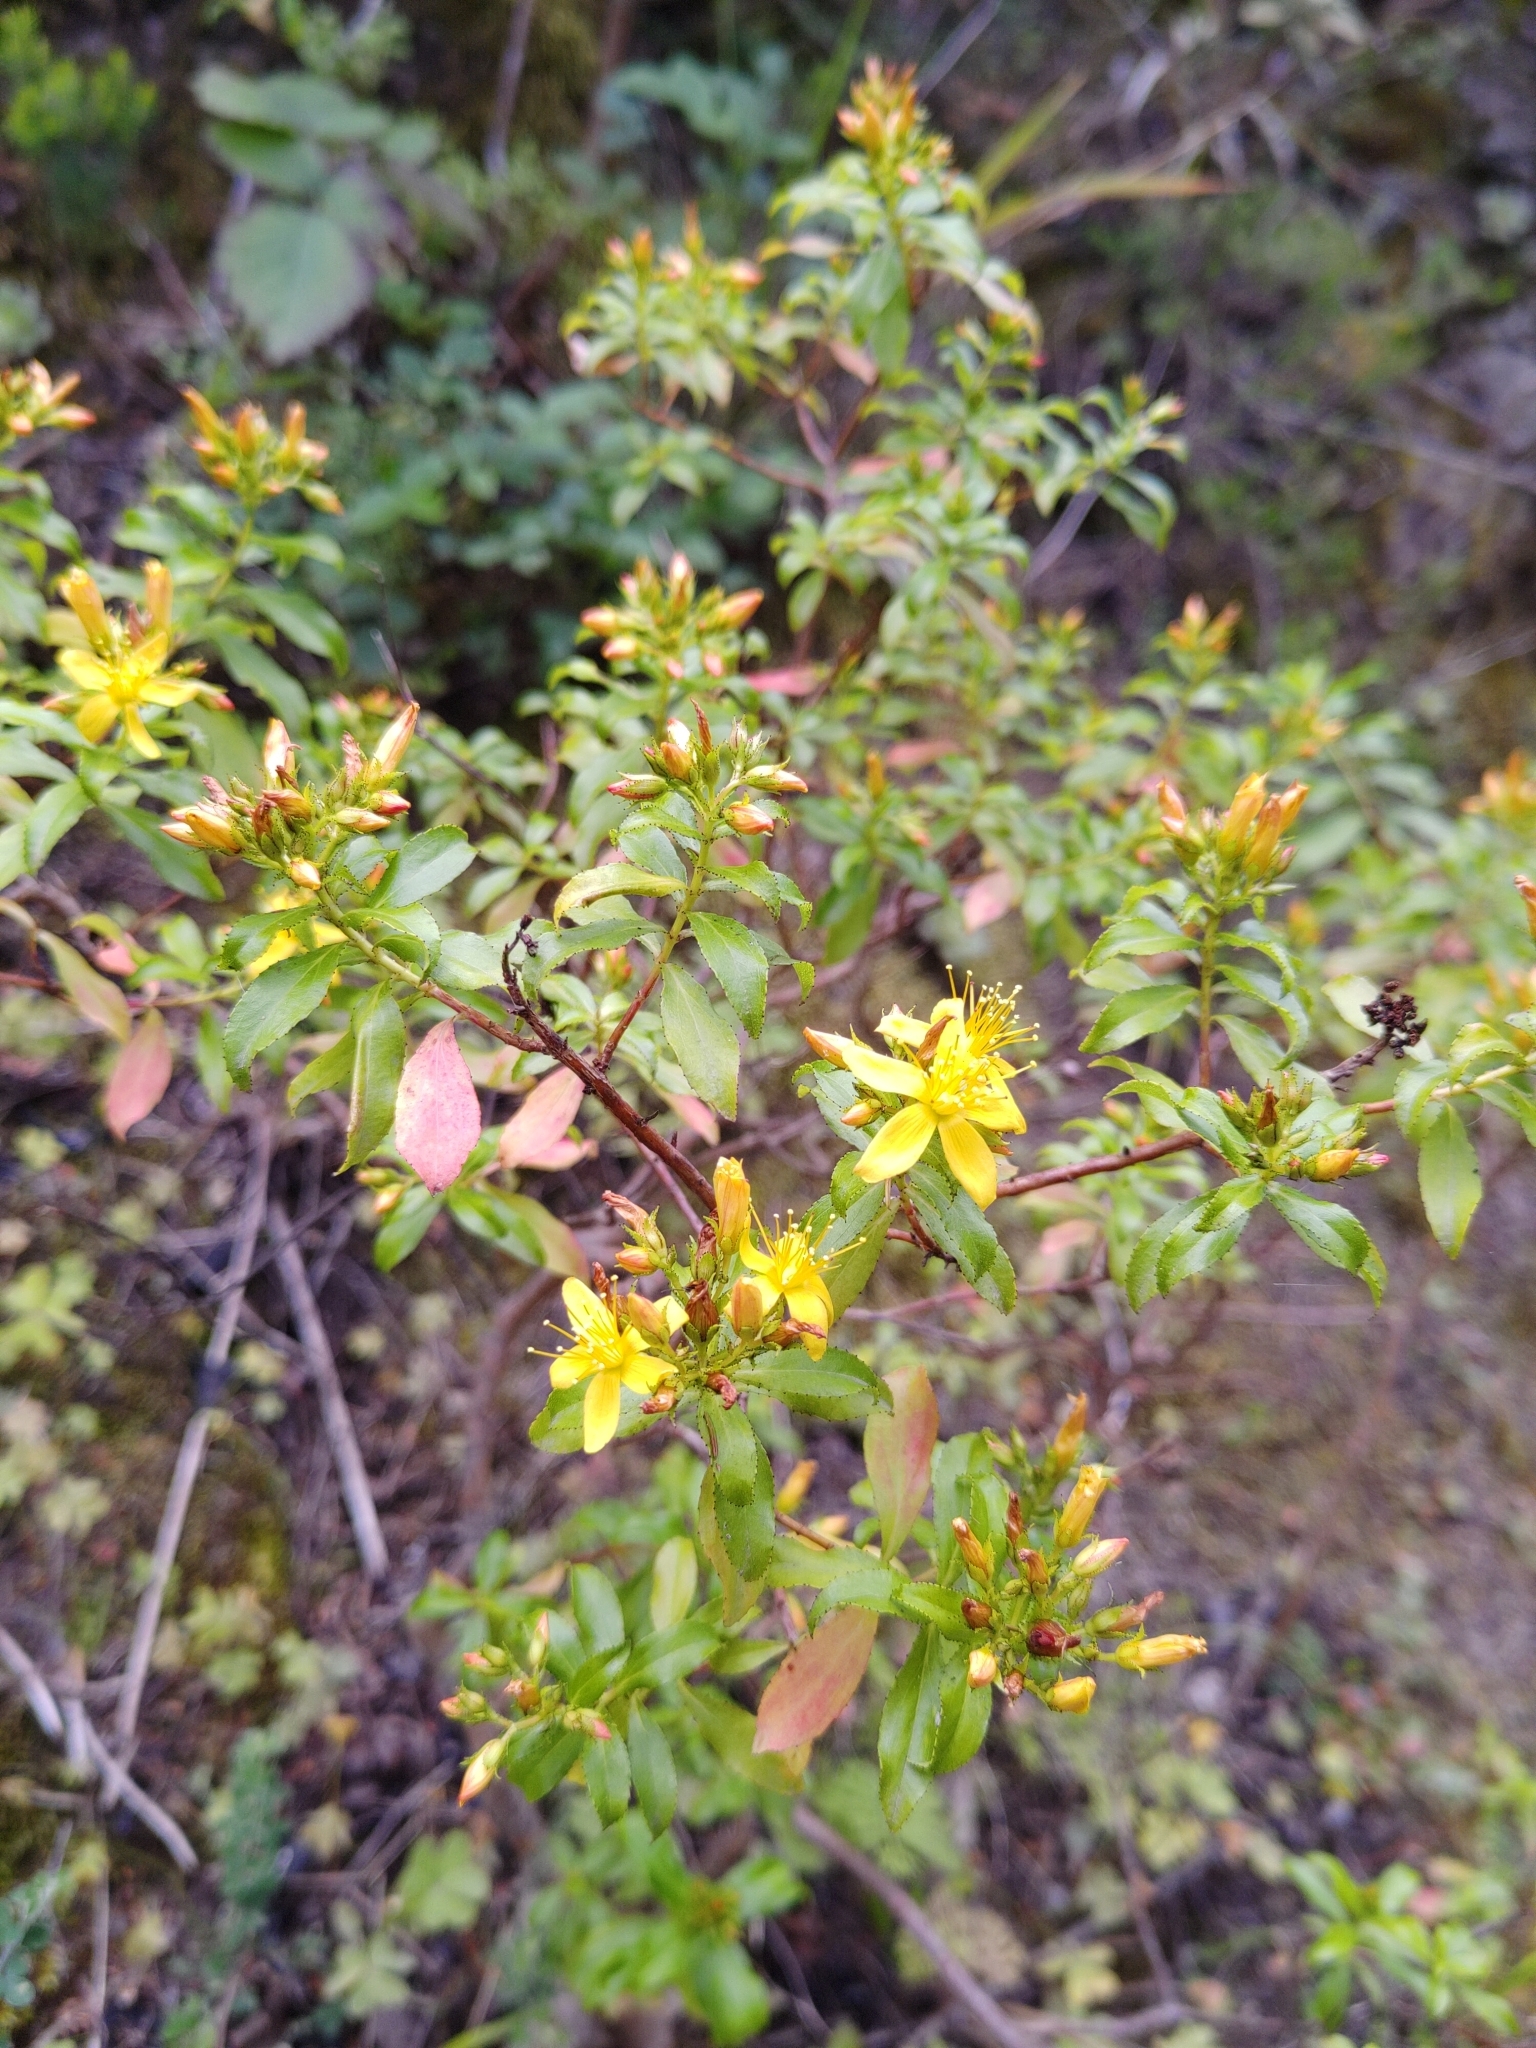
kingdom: Plantae
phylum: Tracheophyta
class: Magnoliopsida
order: Malpighiales
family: Hypericaceae
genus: Hypericum
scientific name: Hypericum glandulosum
